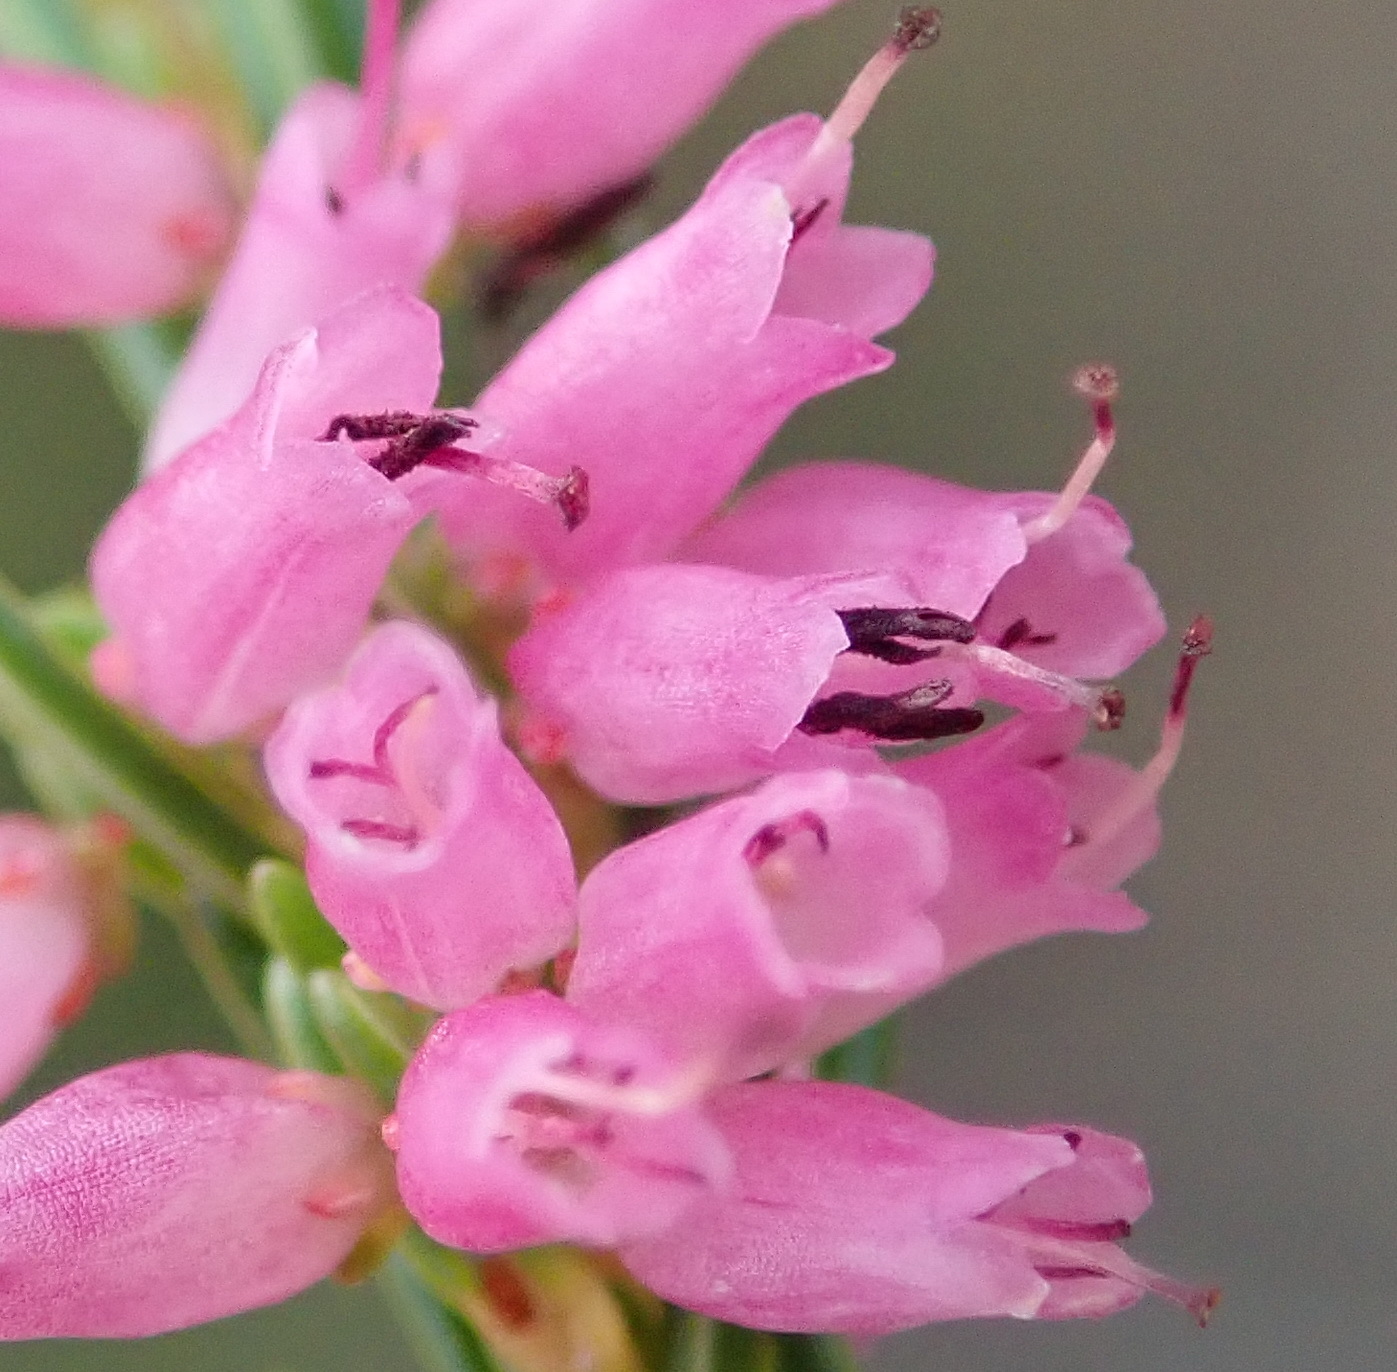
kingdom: Plantae
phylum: Tracheophyta
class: Magnoliopsida
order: Ericales
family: Ericaceae
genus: Erica
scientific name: Erica uberiflora
